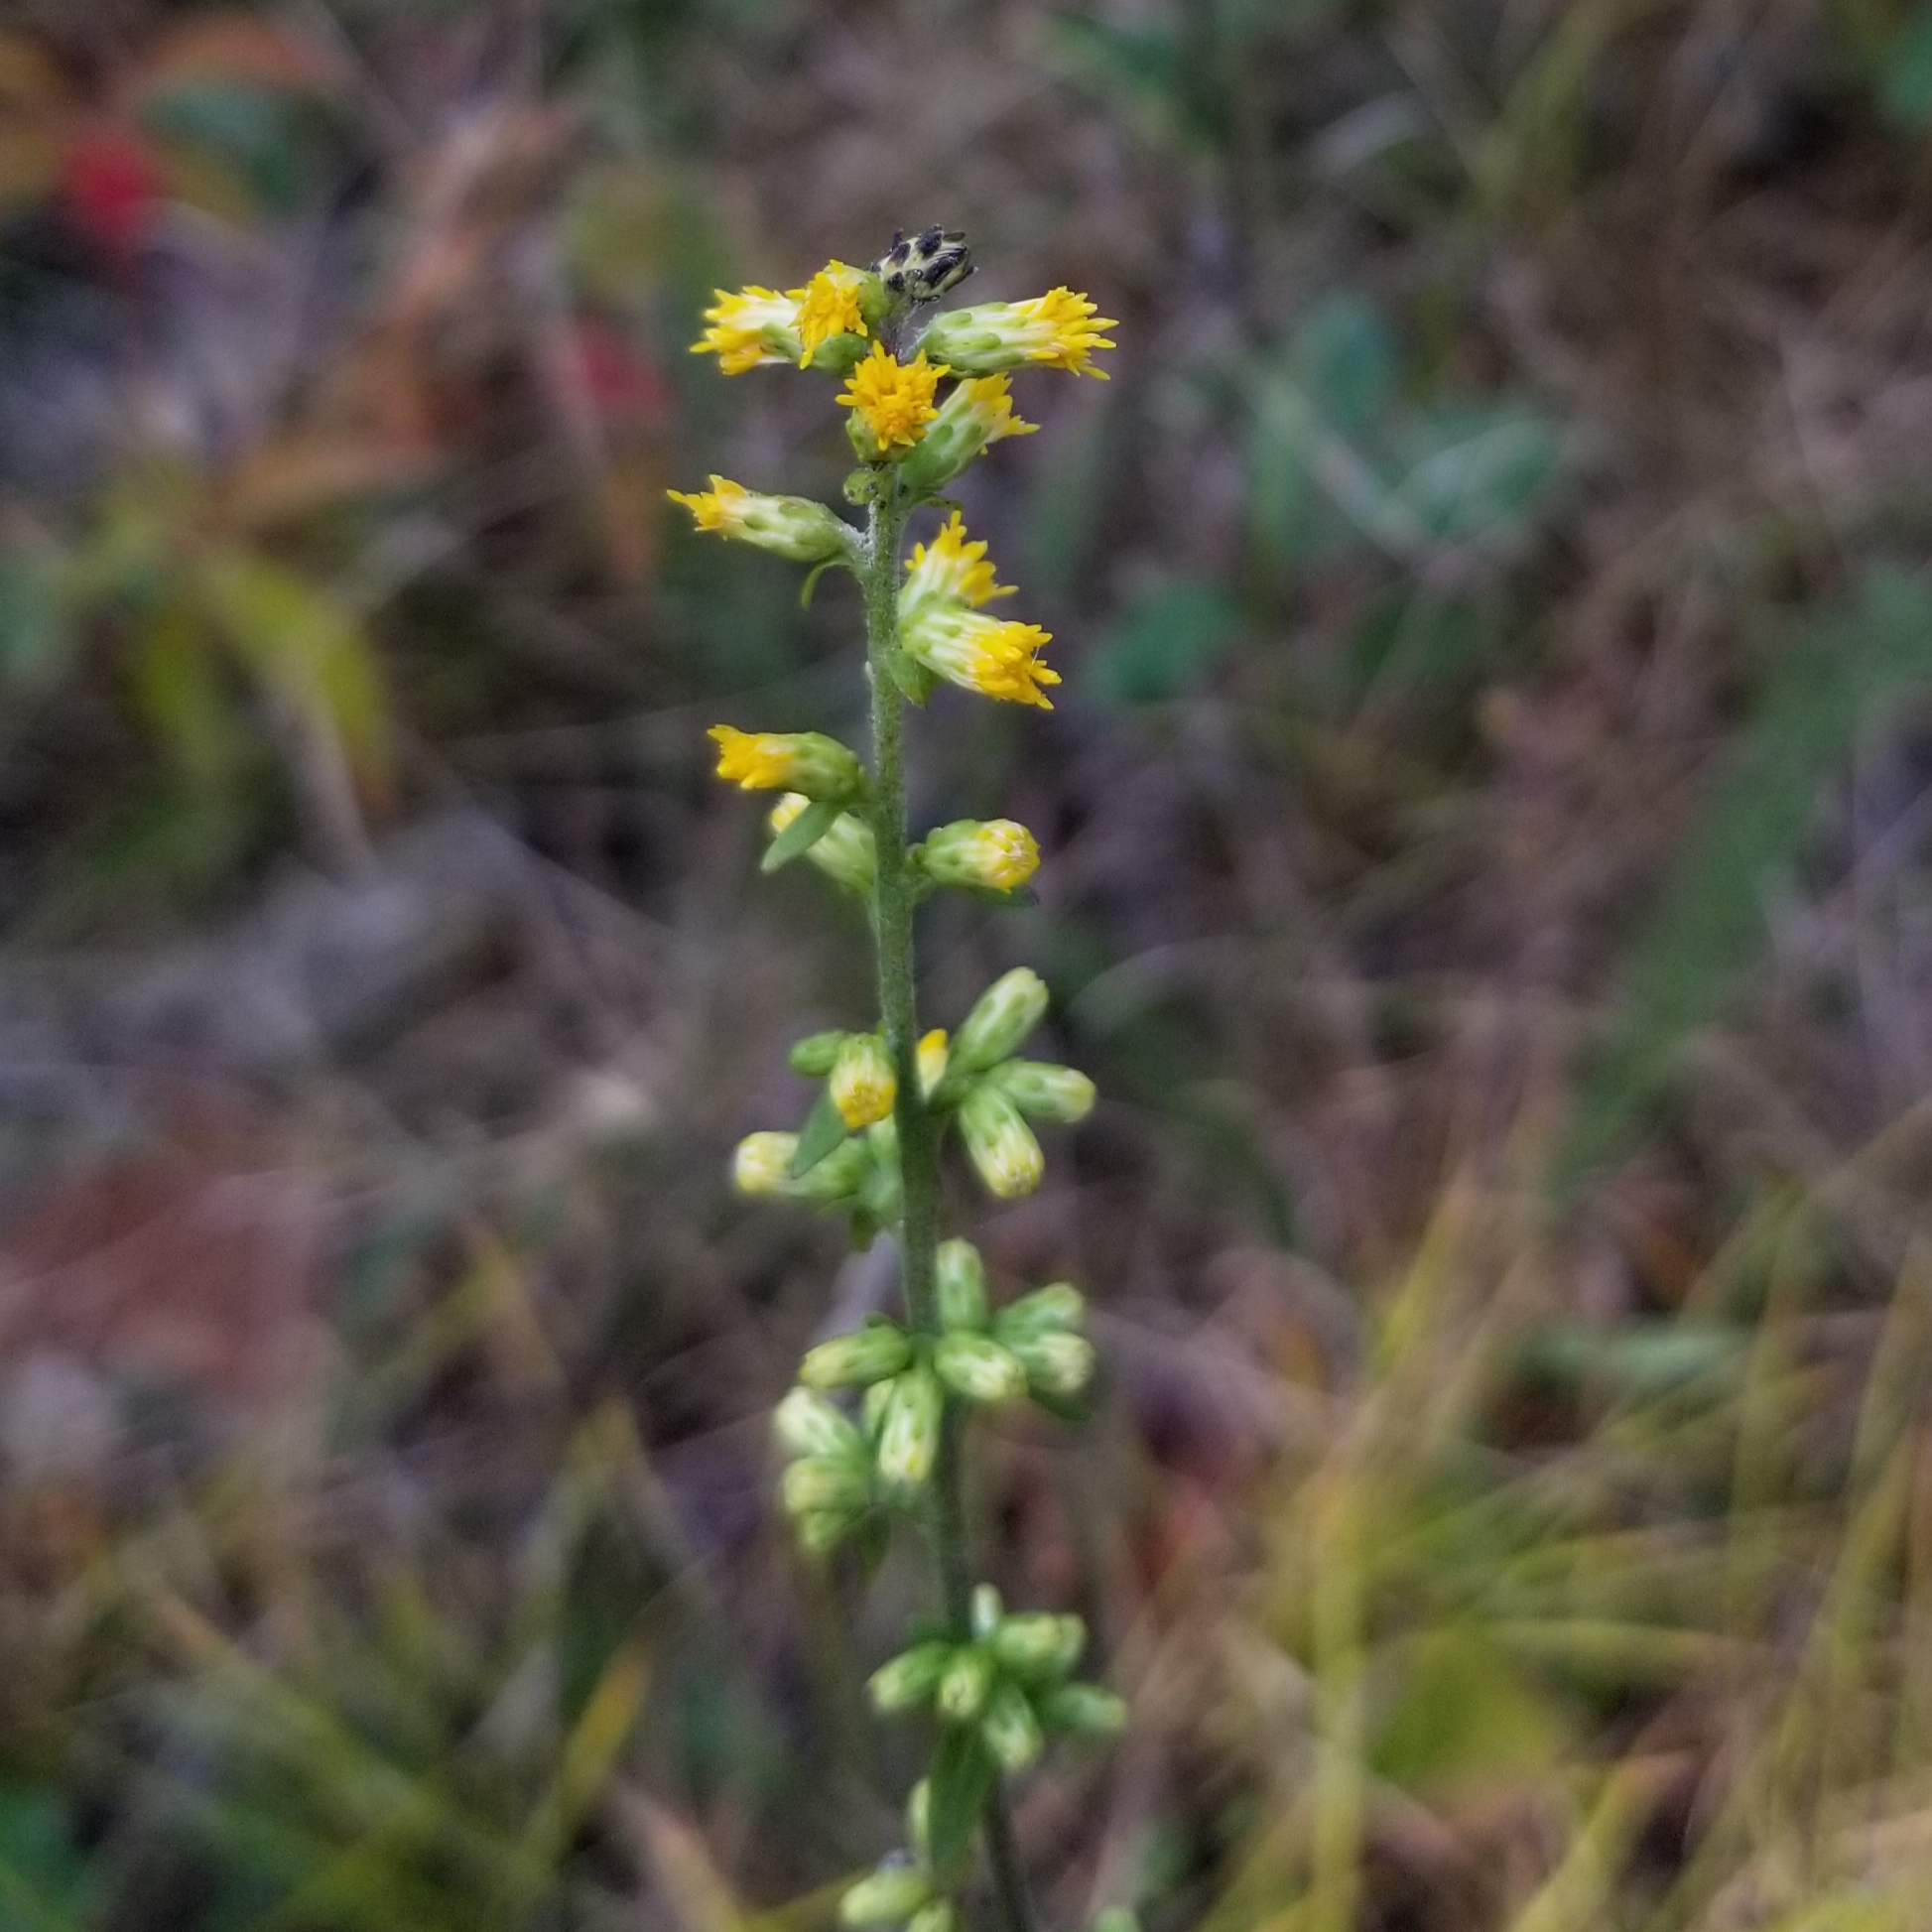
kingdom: Plantae
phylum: Tracheophyta
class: Magnoliopsida
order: Asterales
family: Asteraceae
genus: Solidago
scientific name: Solidago hispida
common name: Hairy goldenrod
